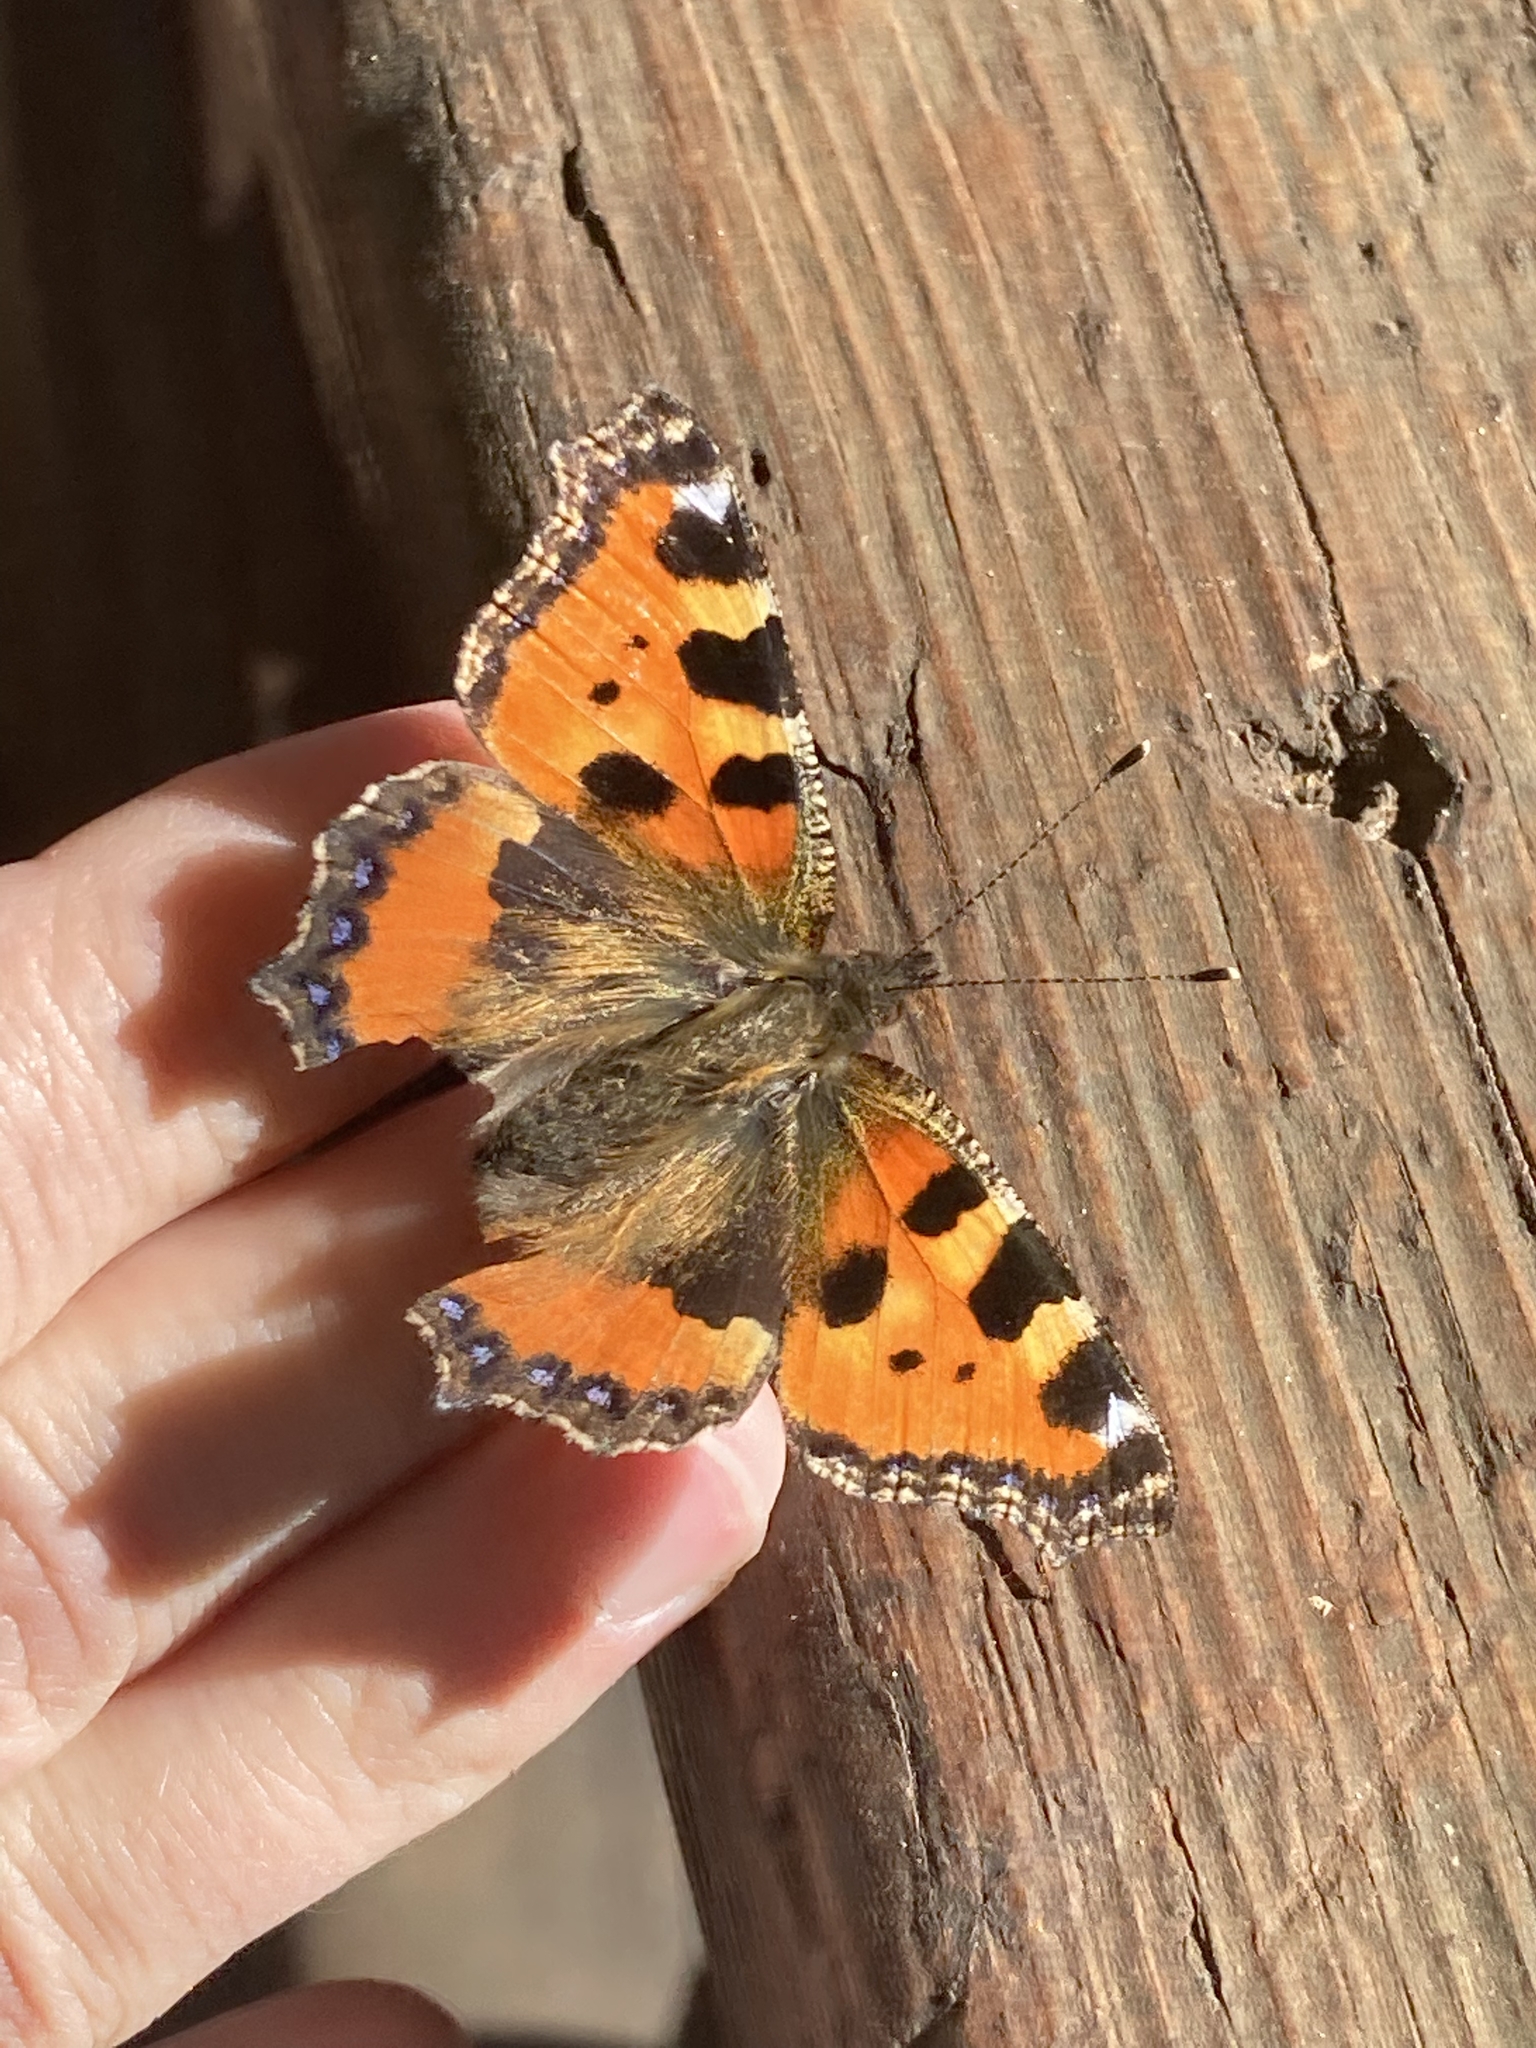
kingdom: Animalia
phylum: Arthropoda
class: Insecta
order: Lepidoptera
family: Nymphalidae
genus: Aglais
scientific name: Aglais urticae
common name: Small tortoiseshell
